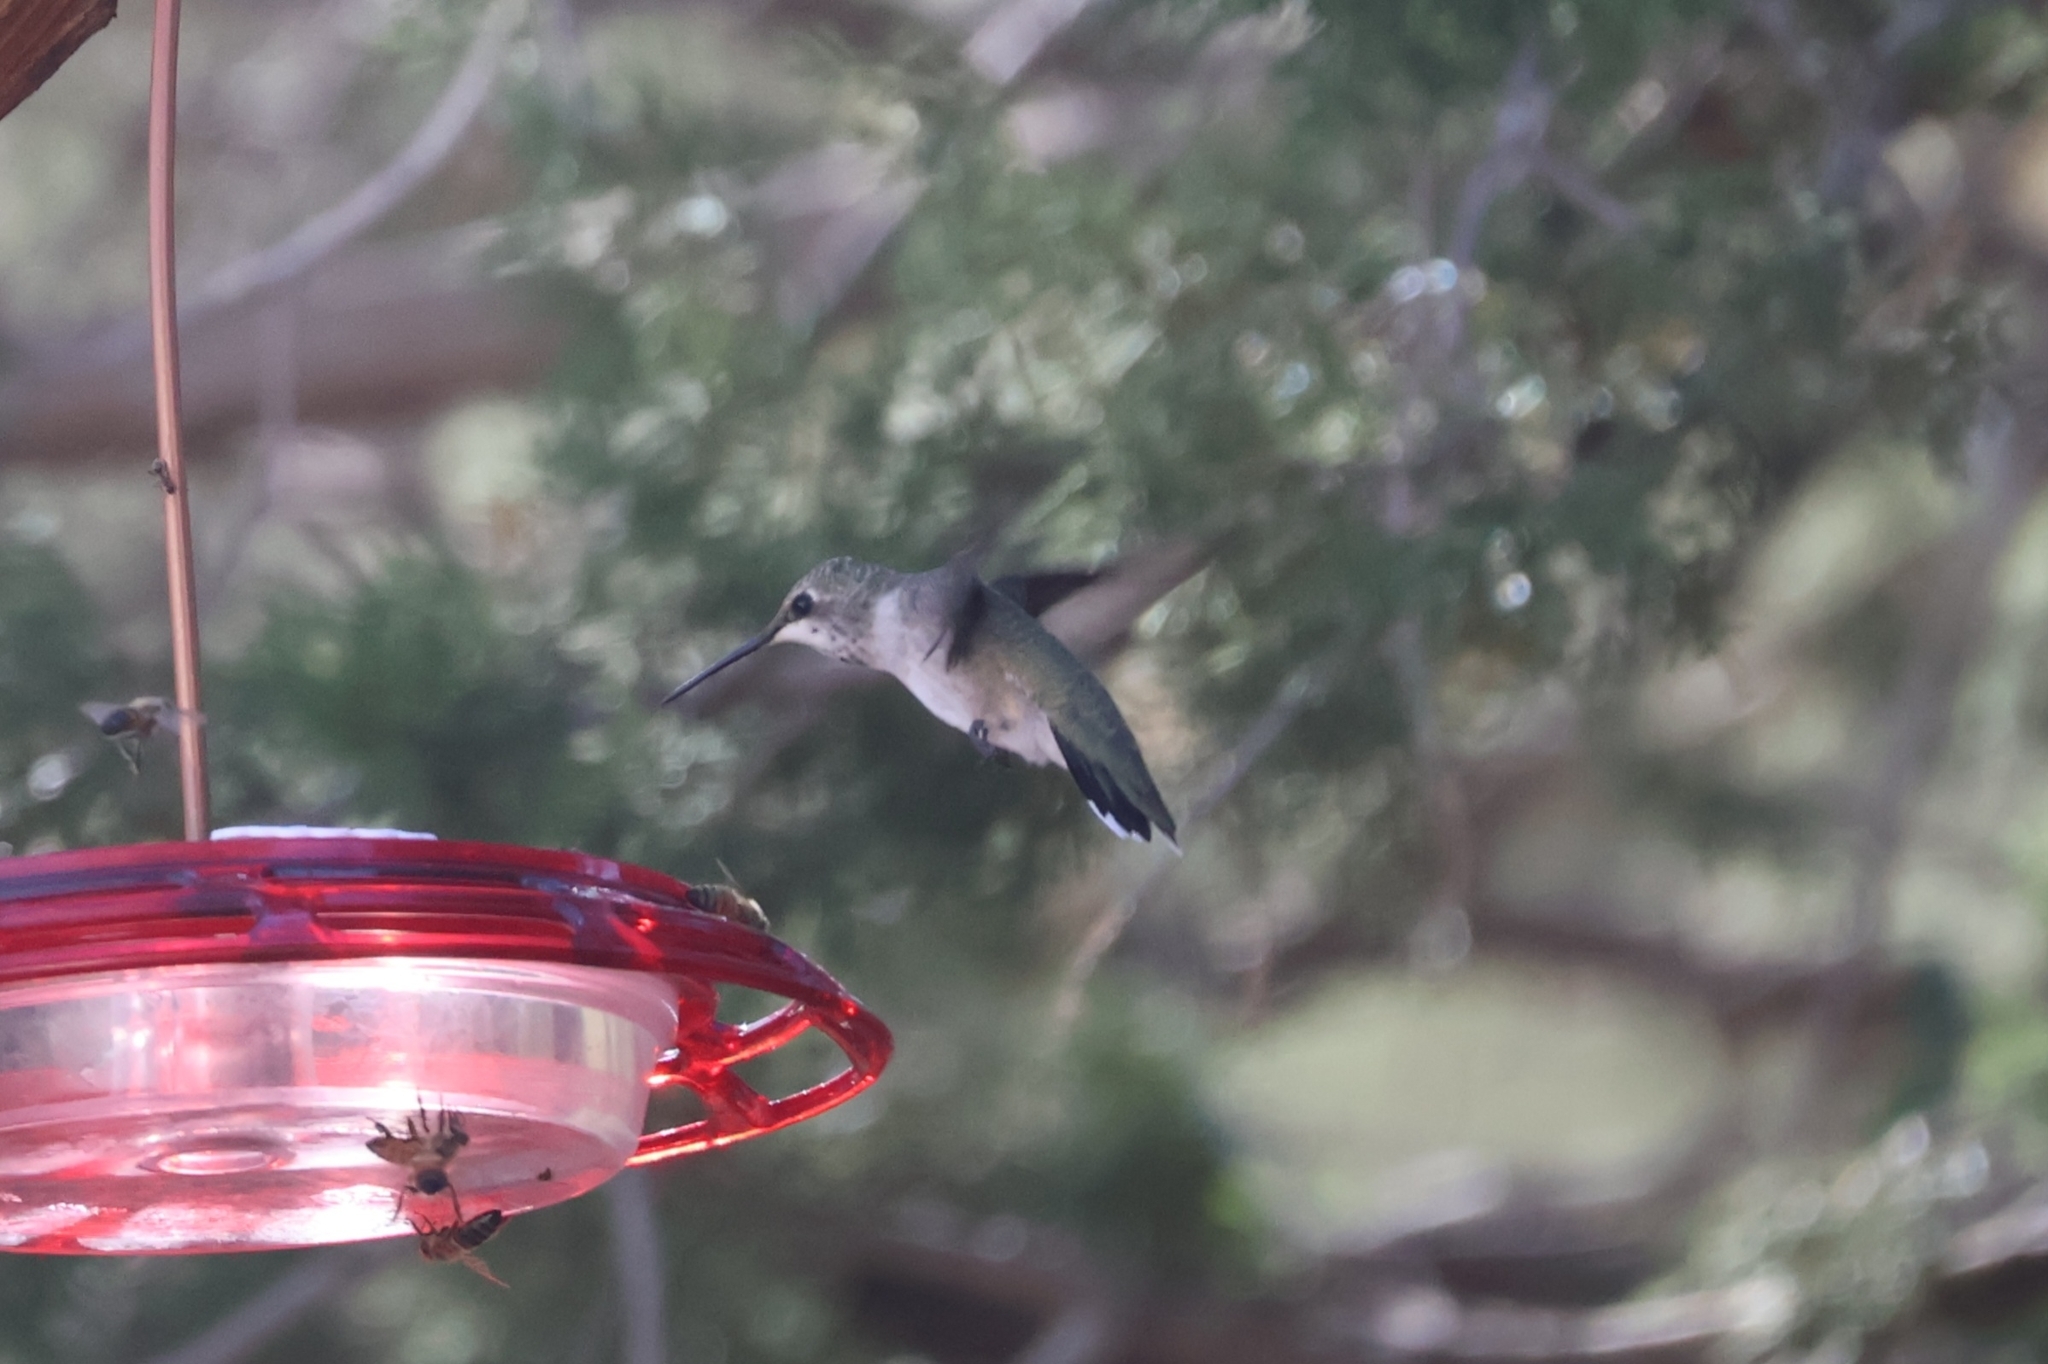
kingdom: Animalia
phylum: Chordata
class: Aves
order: Apodiformes
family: Trochilidae
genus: Archilochus
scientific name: Archilochus alexandri
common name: Black-chinned hummingbird
